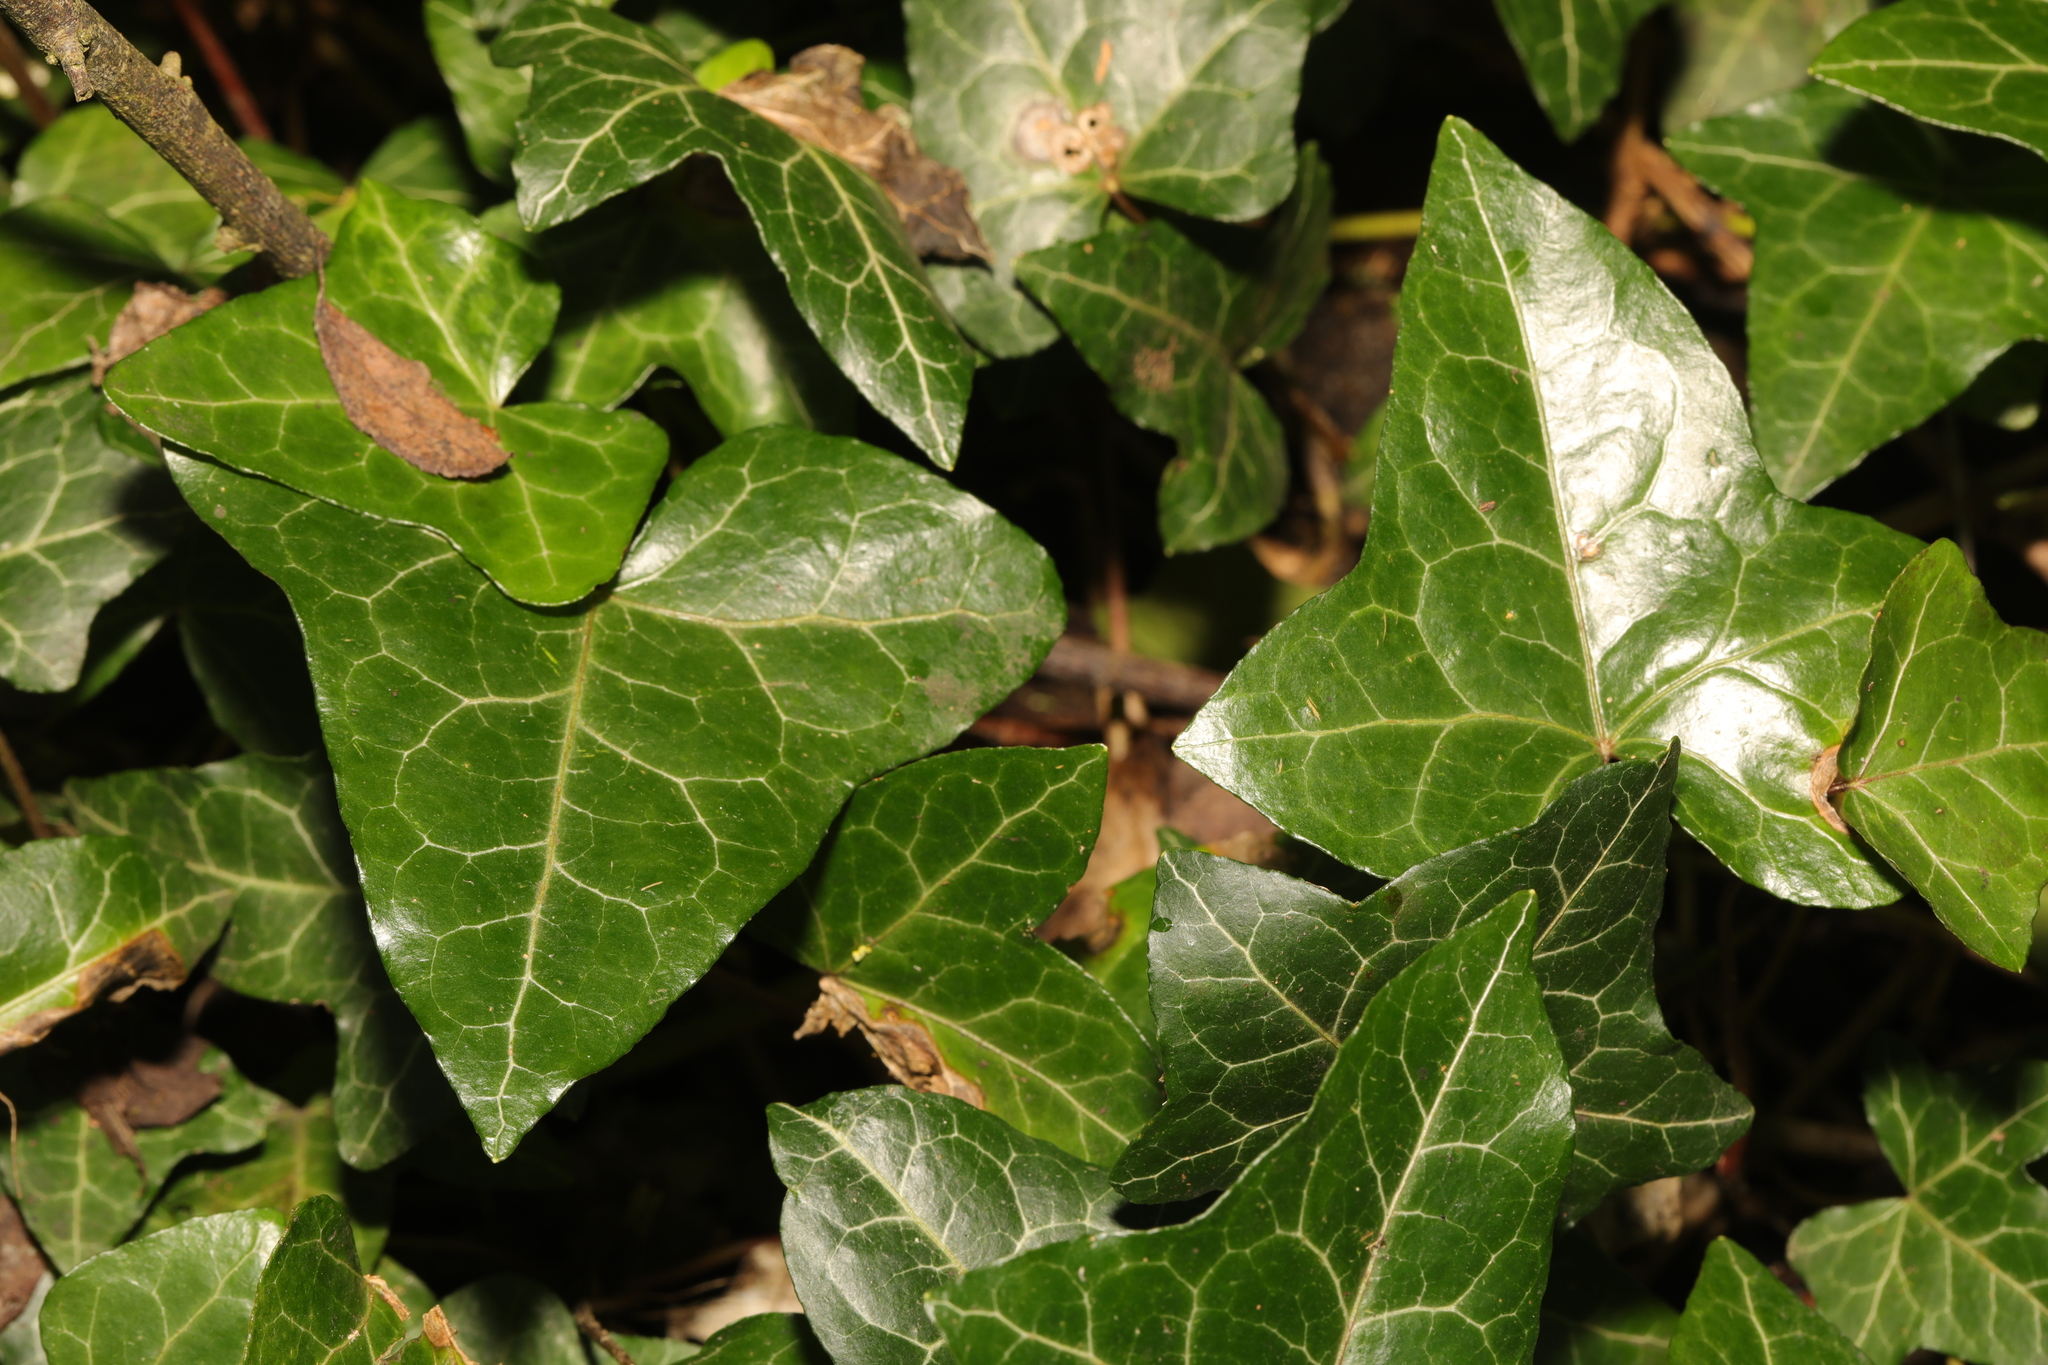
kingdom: Plantae
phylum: Tracheophyta
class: Magnoliopsida
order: Apiales
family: Araliaceae
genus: Hedera
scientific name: Hedera helix
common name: Ivy
